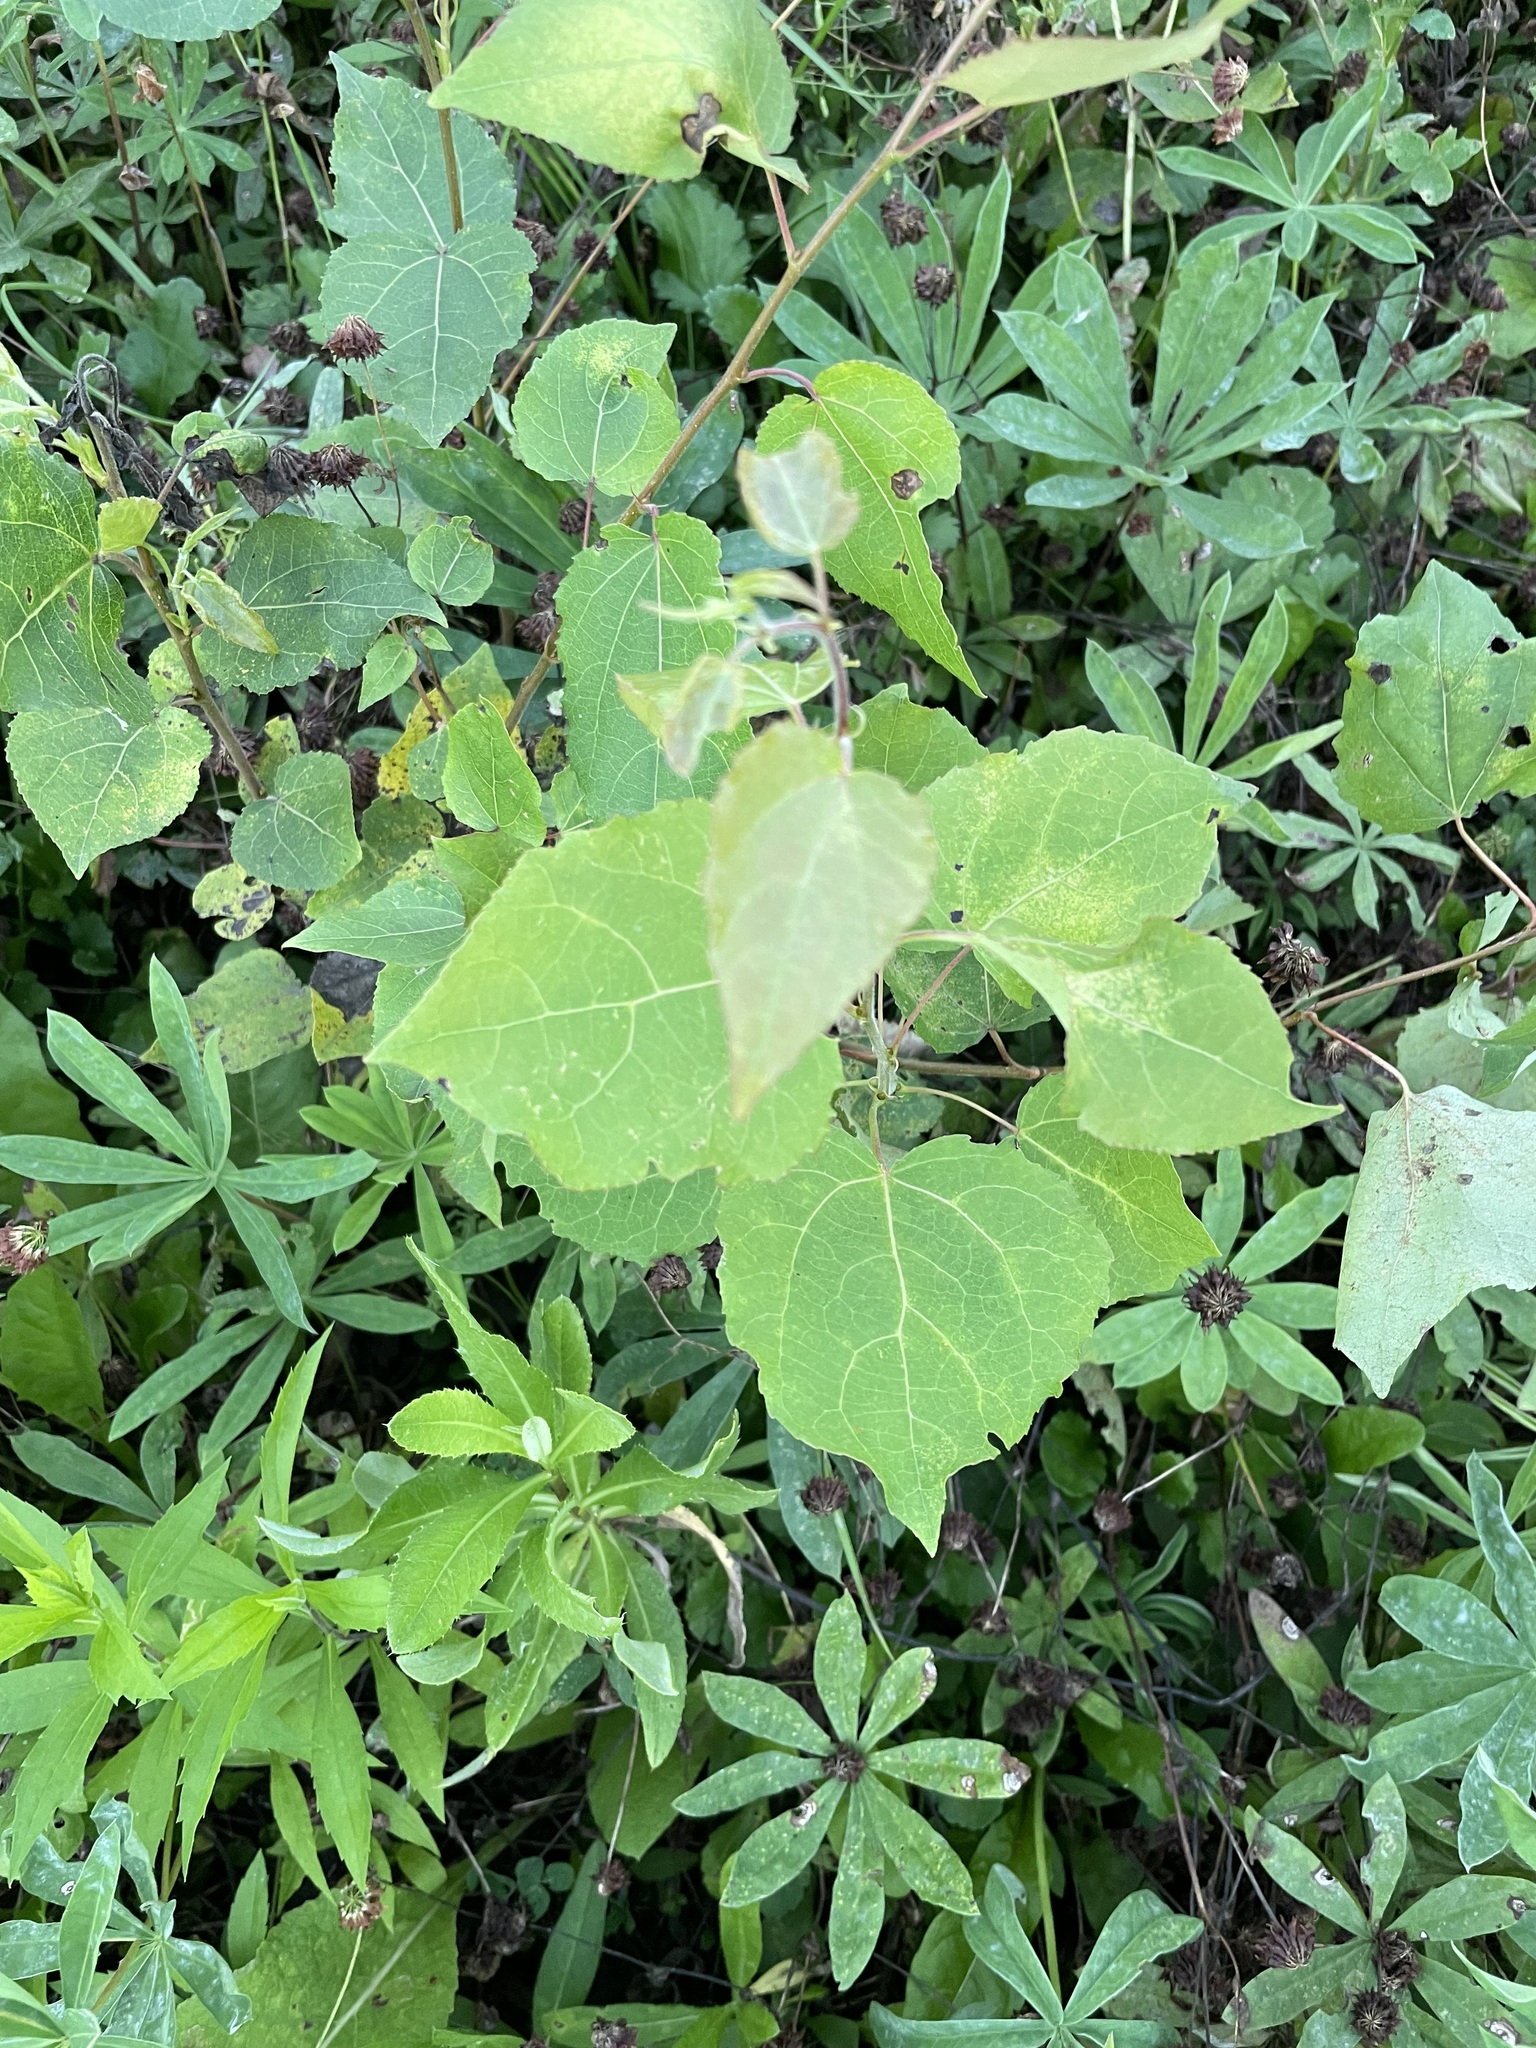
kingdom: Plantae
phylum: Tracheophyta
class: Magnoliopsida
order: Malpighiales
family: Salicaceae
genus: Populus
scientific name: Populus tremula
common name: European aspen
